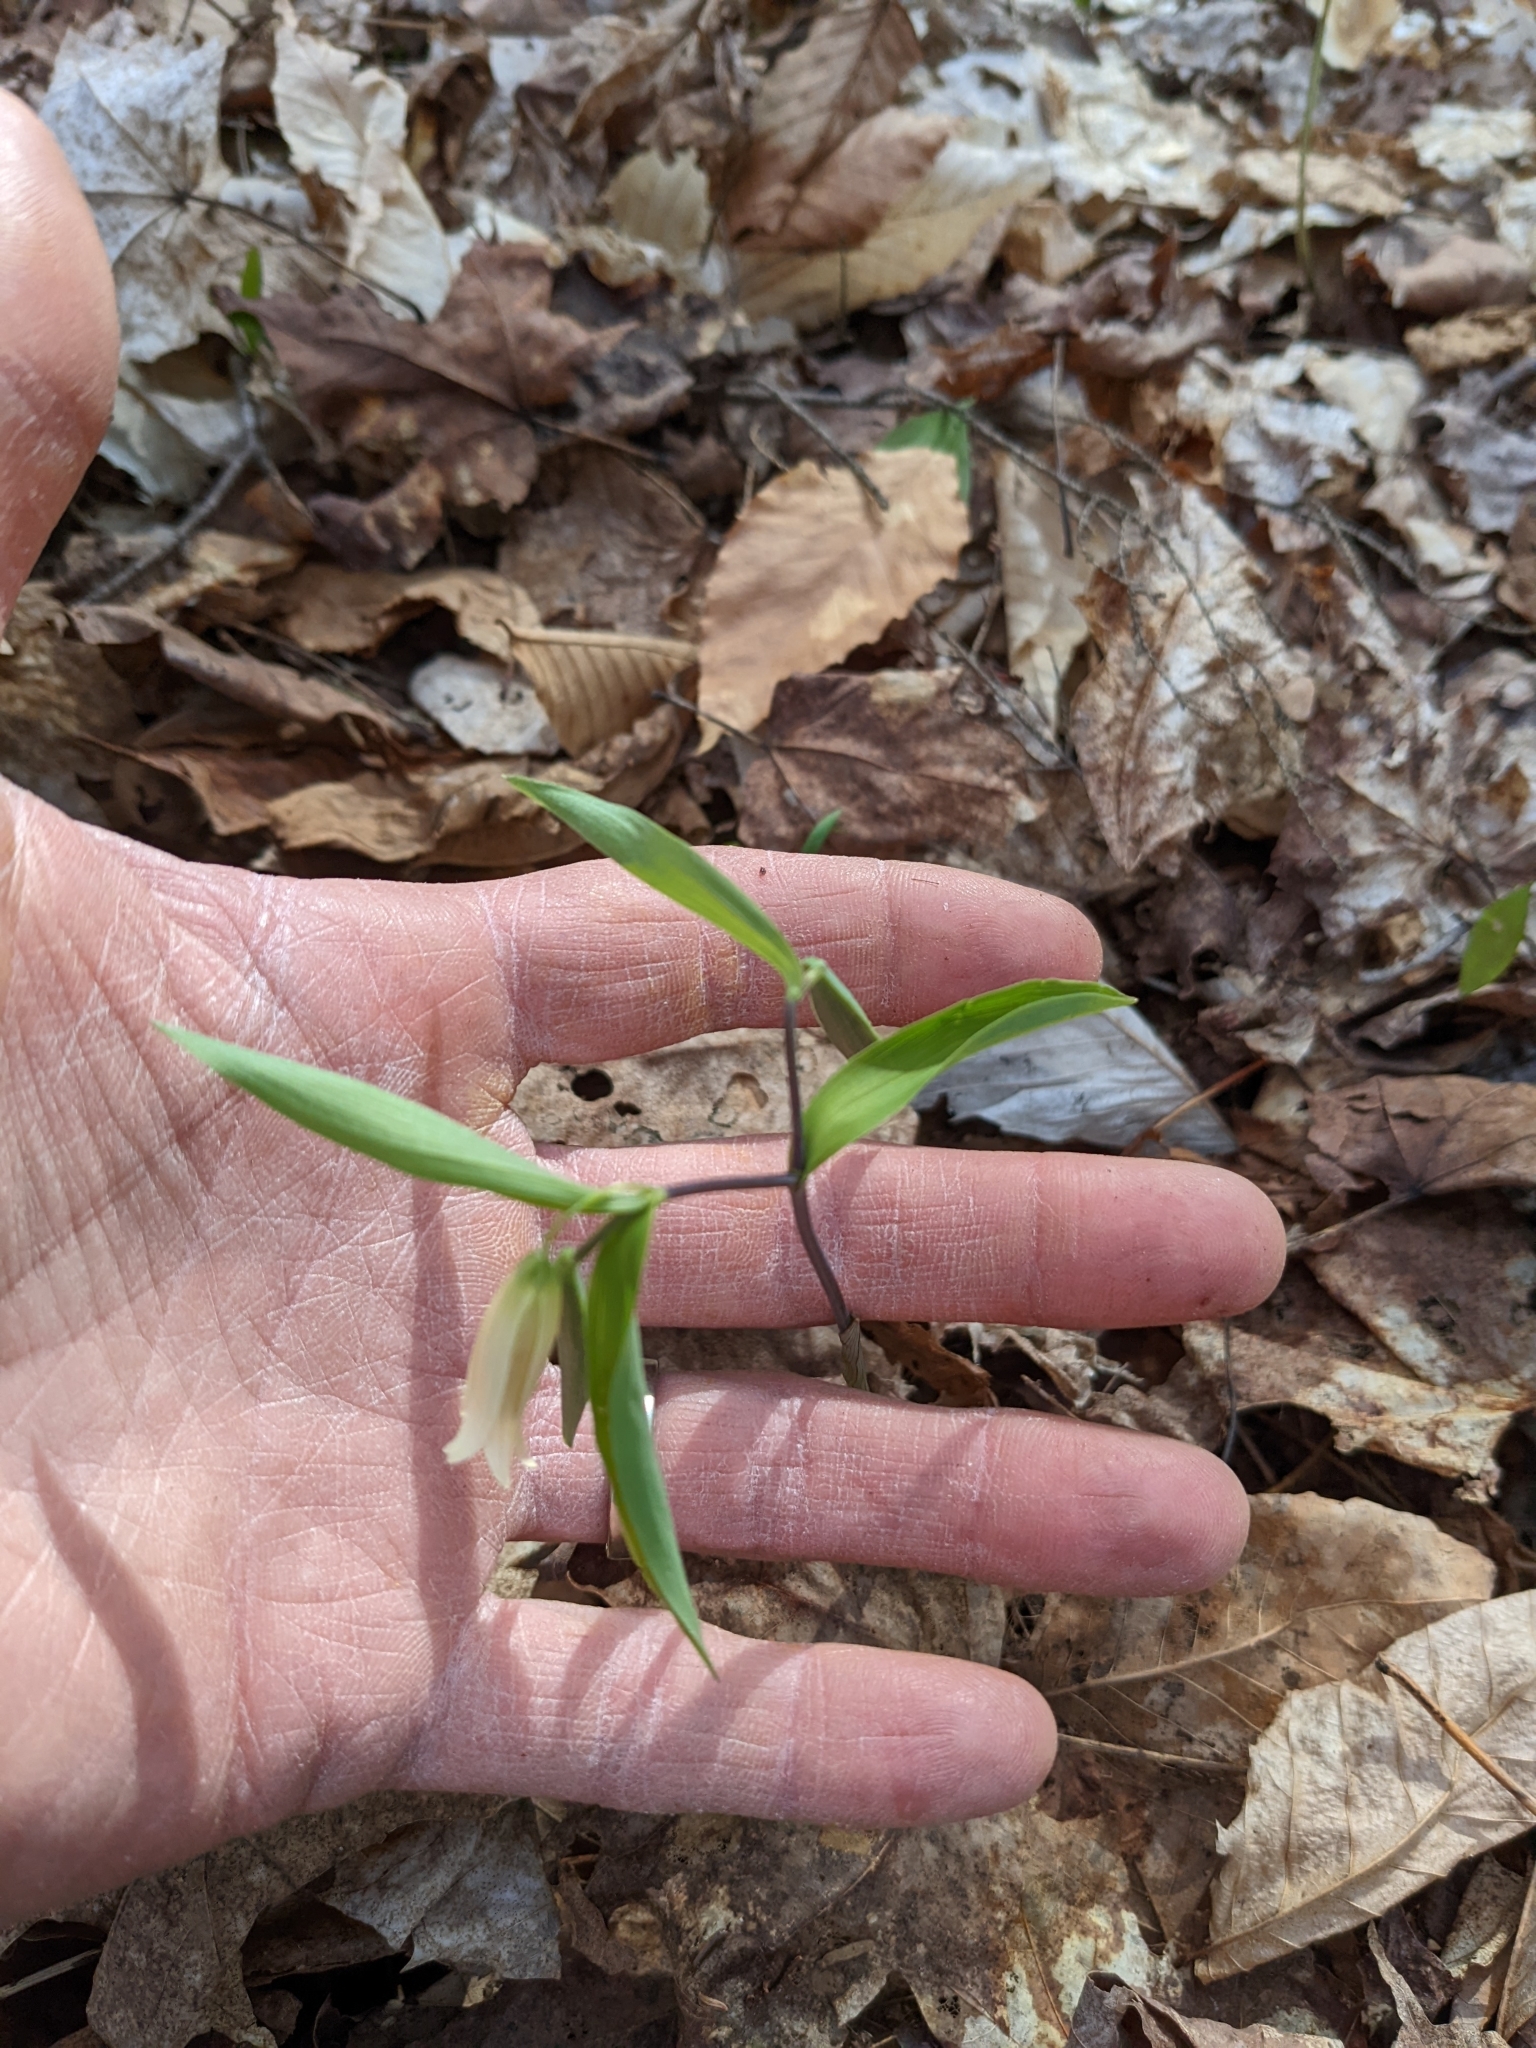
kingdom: Plantae
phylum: Tracheophyta
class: Liliopsida
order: Liliales
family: Colchicaceae
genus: Uvularia
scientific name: Uvularia sessilifolia
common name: Straw-lily
